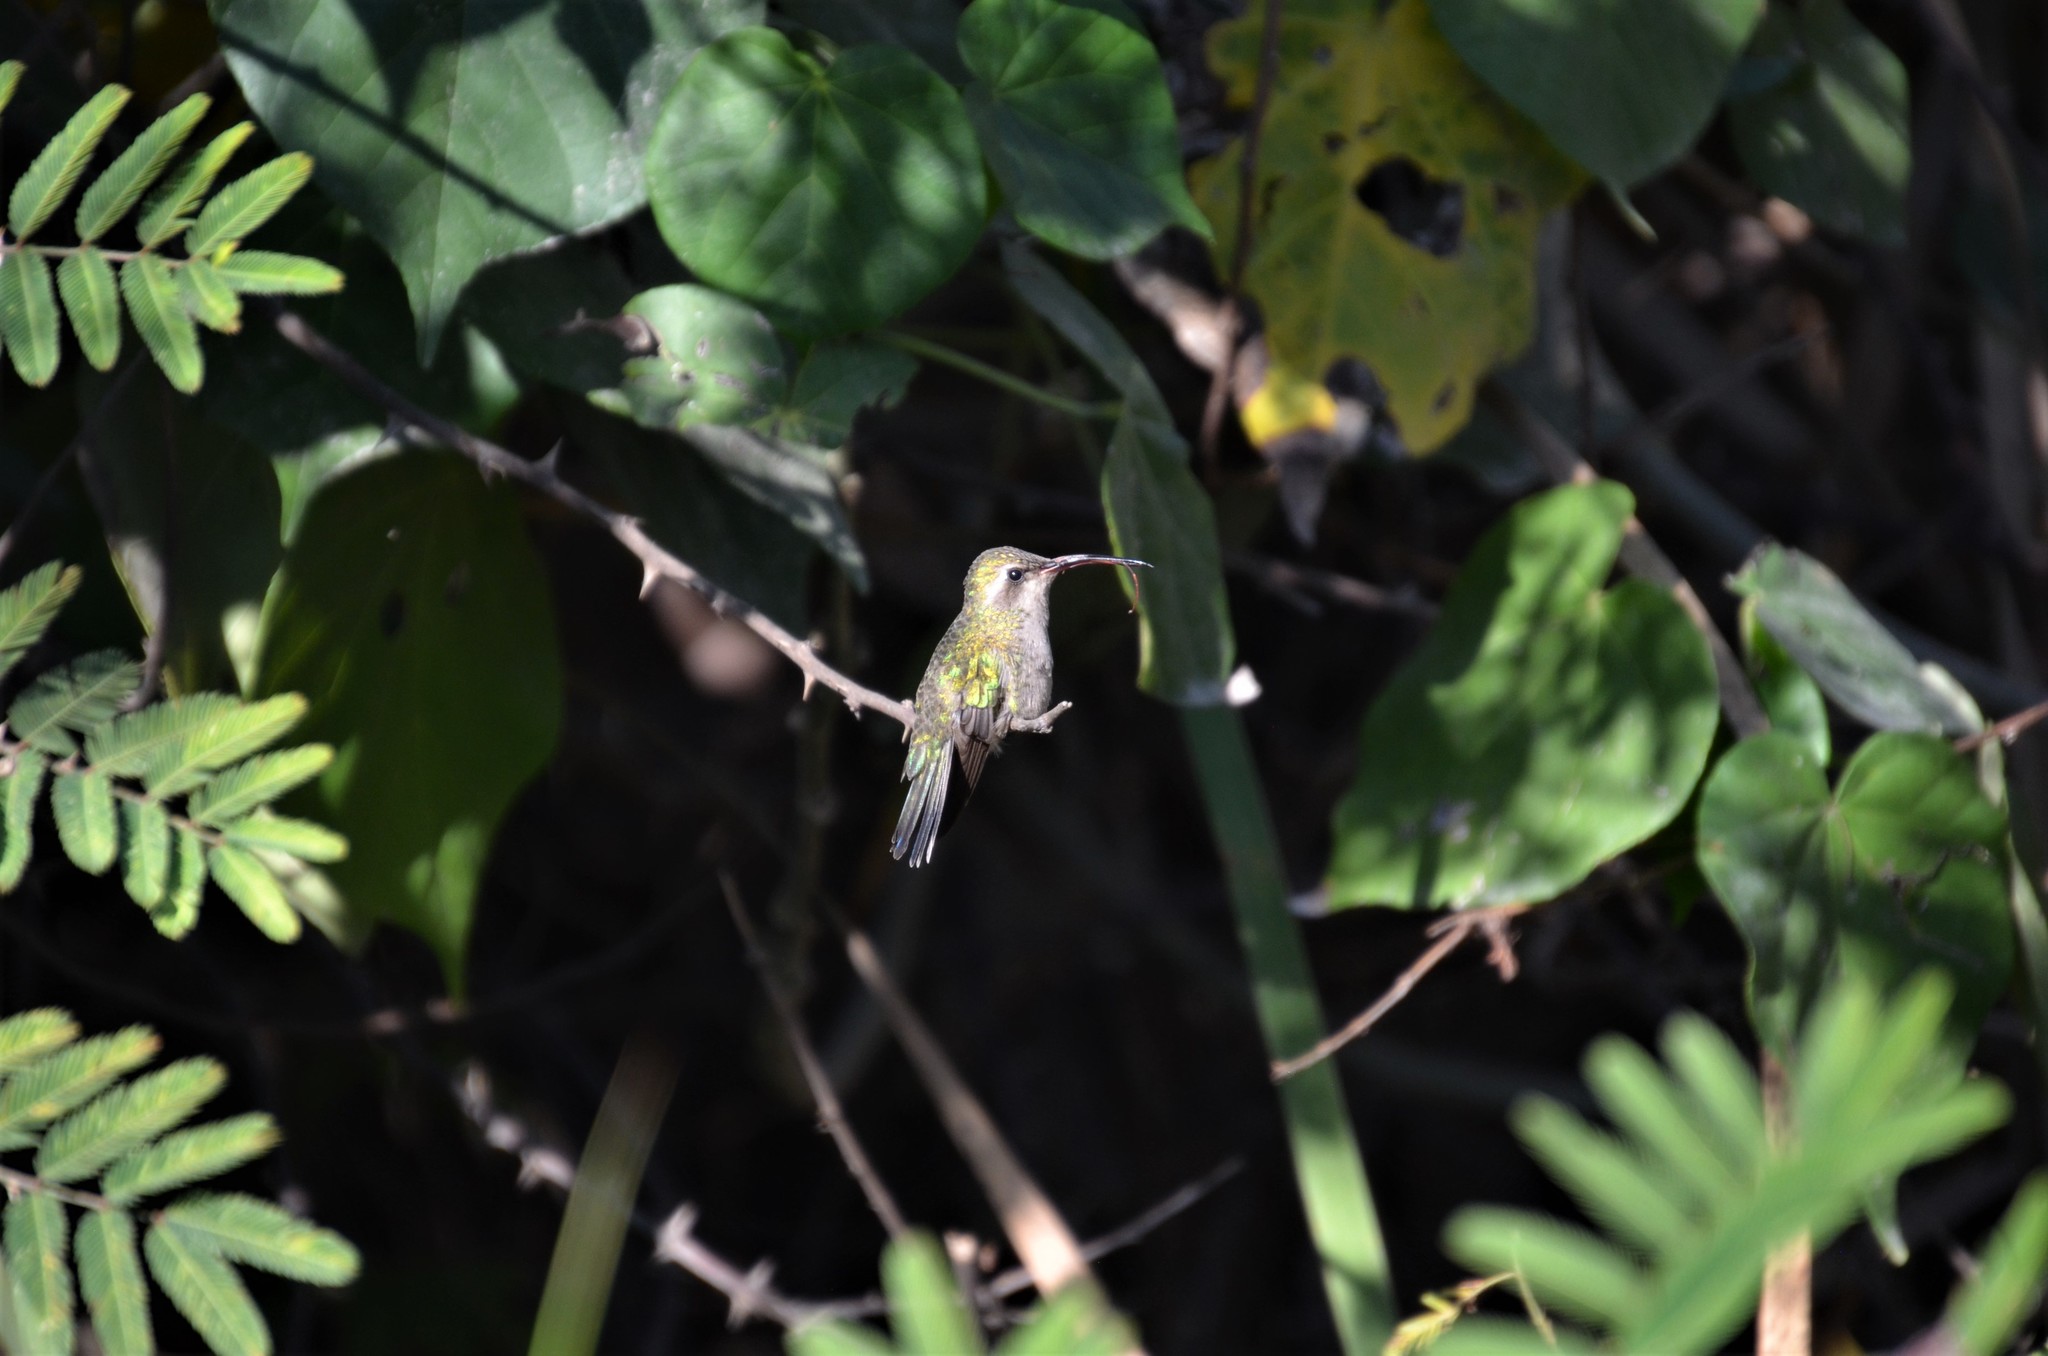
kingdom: Animalia
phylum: Chordata
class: Aves
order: Apodiformes
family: Trochilidae
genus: Cynanthus
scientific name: Cynanthus latirostris
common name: Broad-billed hummingbird
